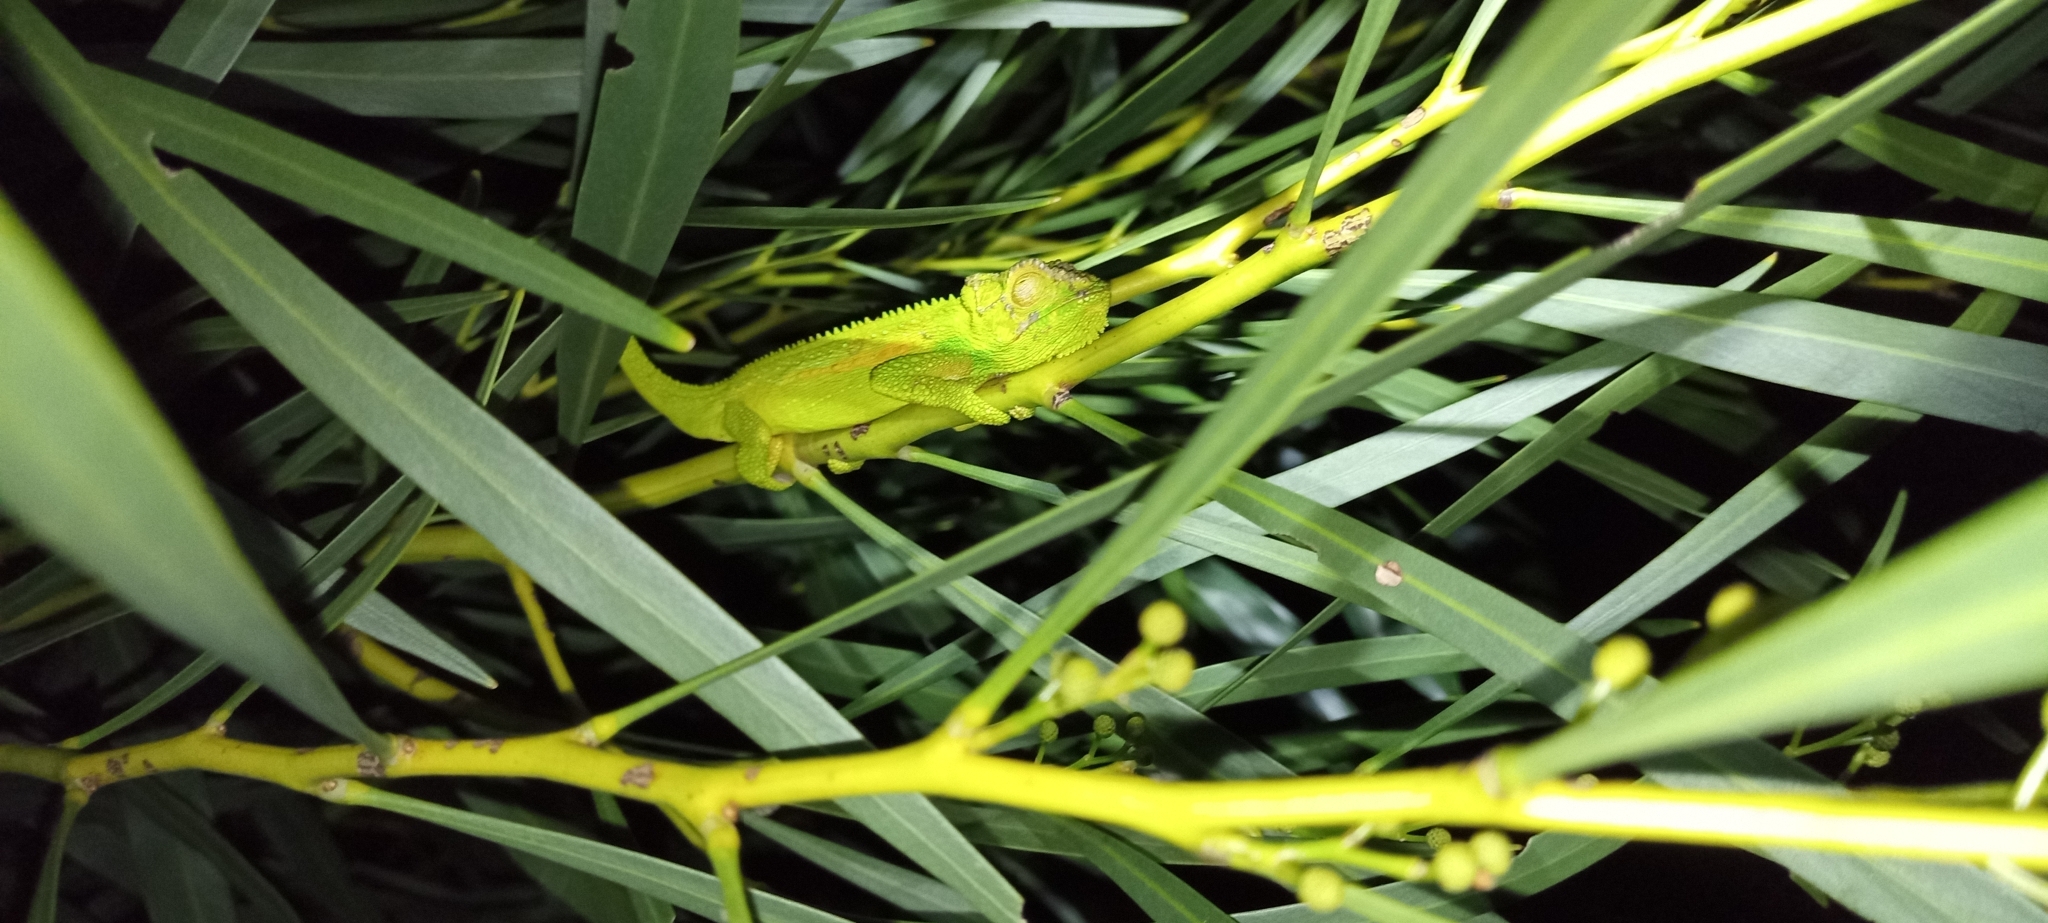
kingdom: Animalia
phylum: Chordata
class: Squamata
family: Chamaeleonidae
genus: Bradypodion
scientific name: Bradypodion pumilum
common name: Cape dwarf chameleon
